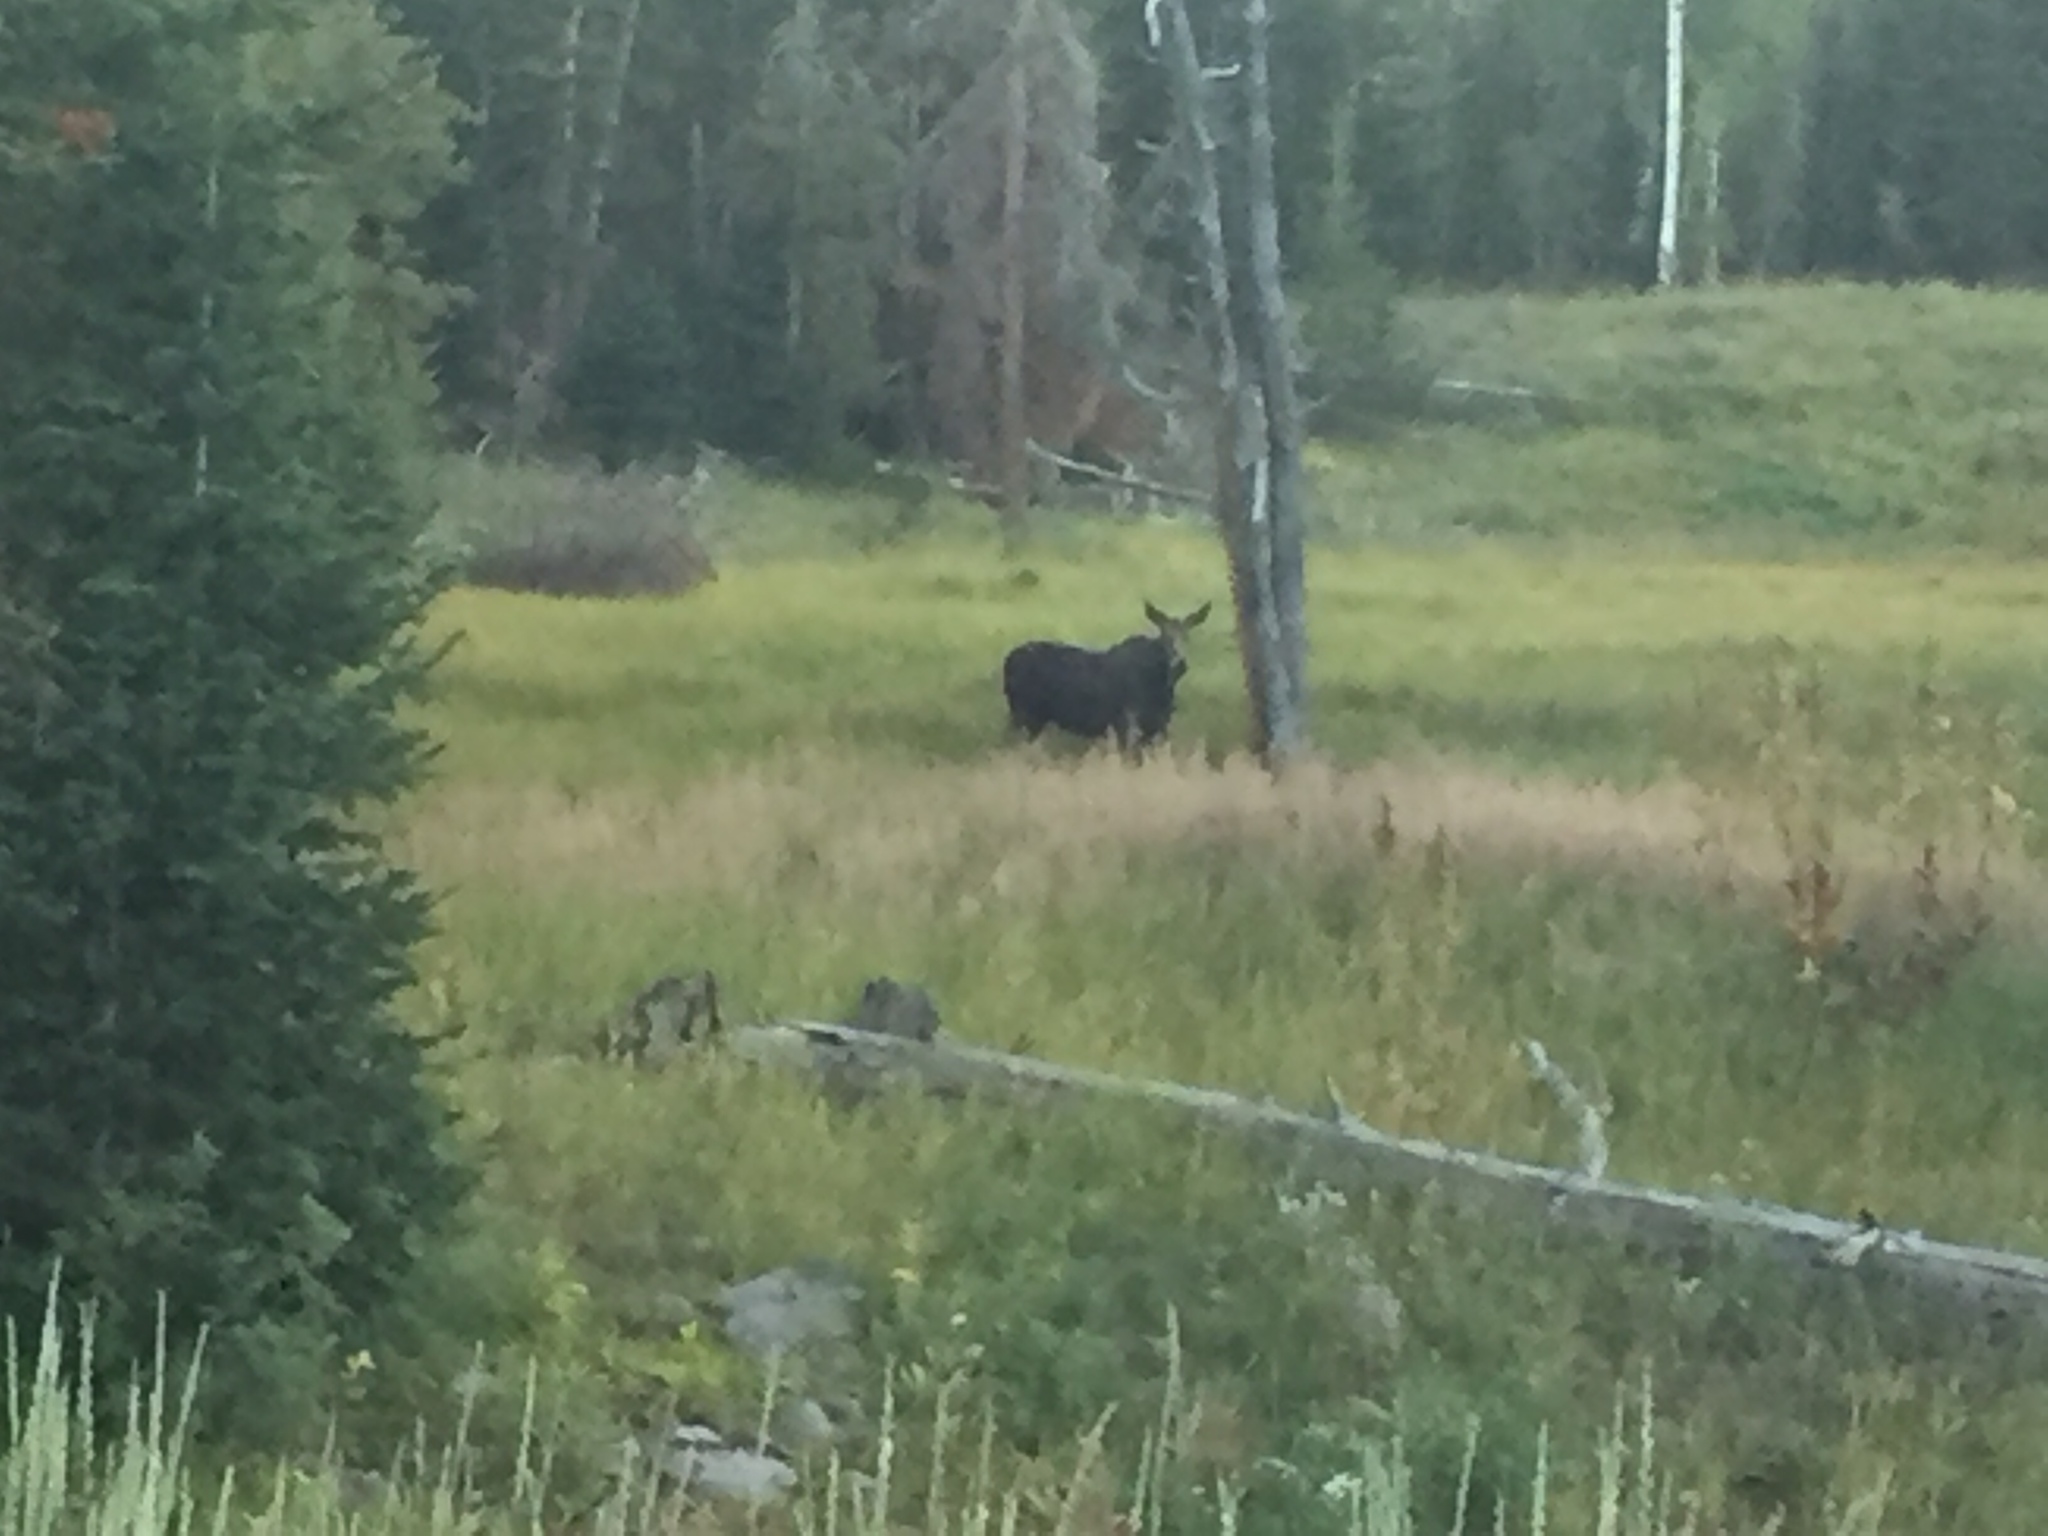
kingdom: Animalia
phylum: Chordata
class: Mammalia
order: Artiodactyla
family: Cervidae
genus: Alces
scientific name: Alces alces
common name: Moose
